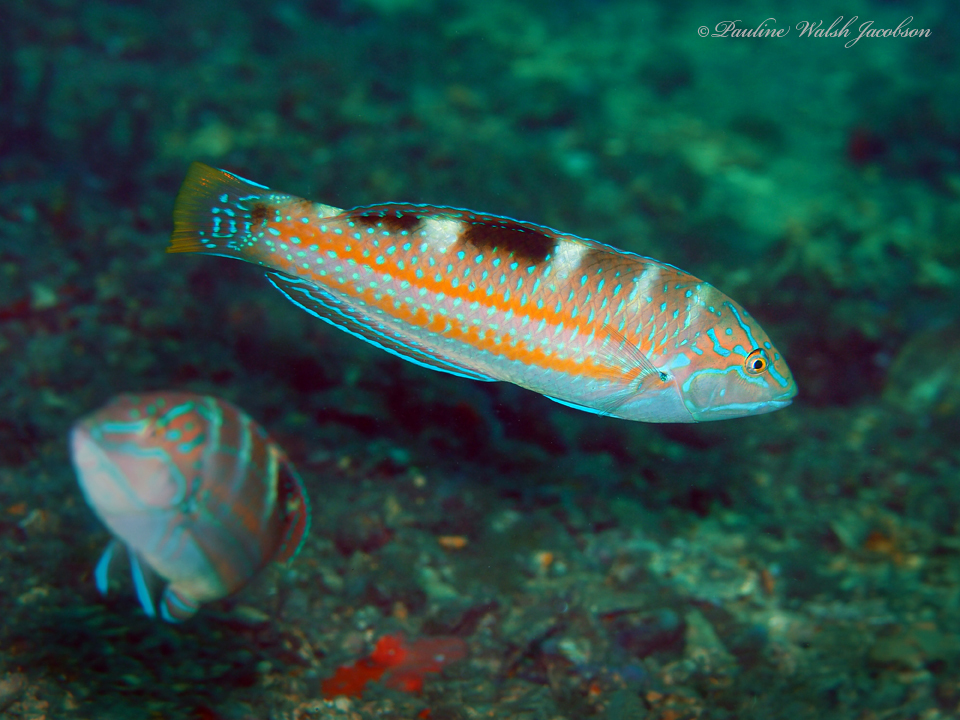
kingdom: Animalia
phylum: Chordata
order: Perciformes
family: Labridae
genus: Halichoeres
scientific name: Halichoeres radiatus
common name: Puddingwife
